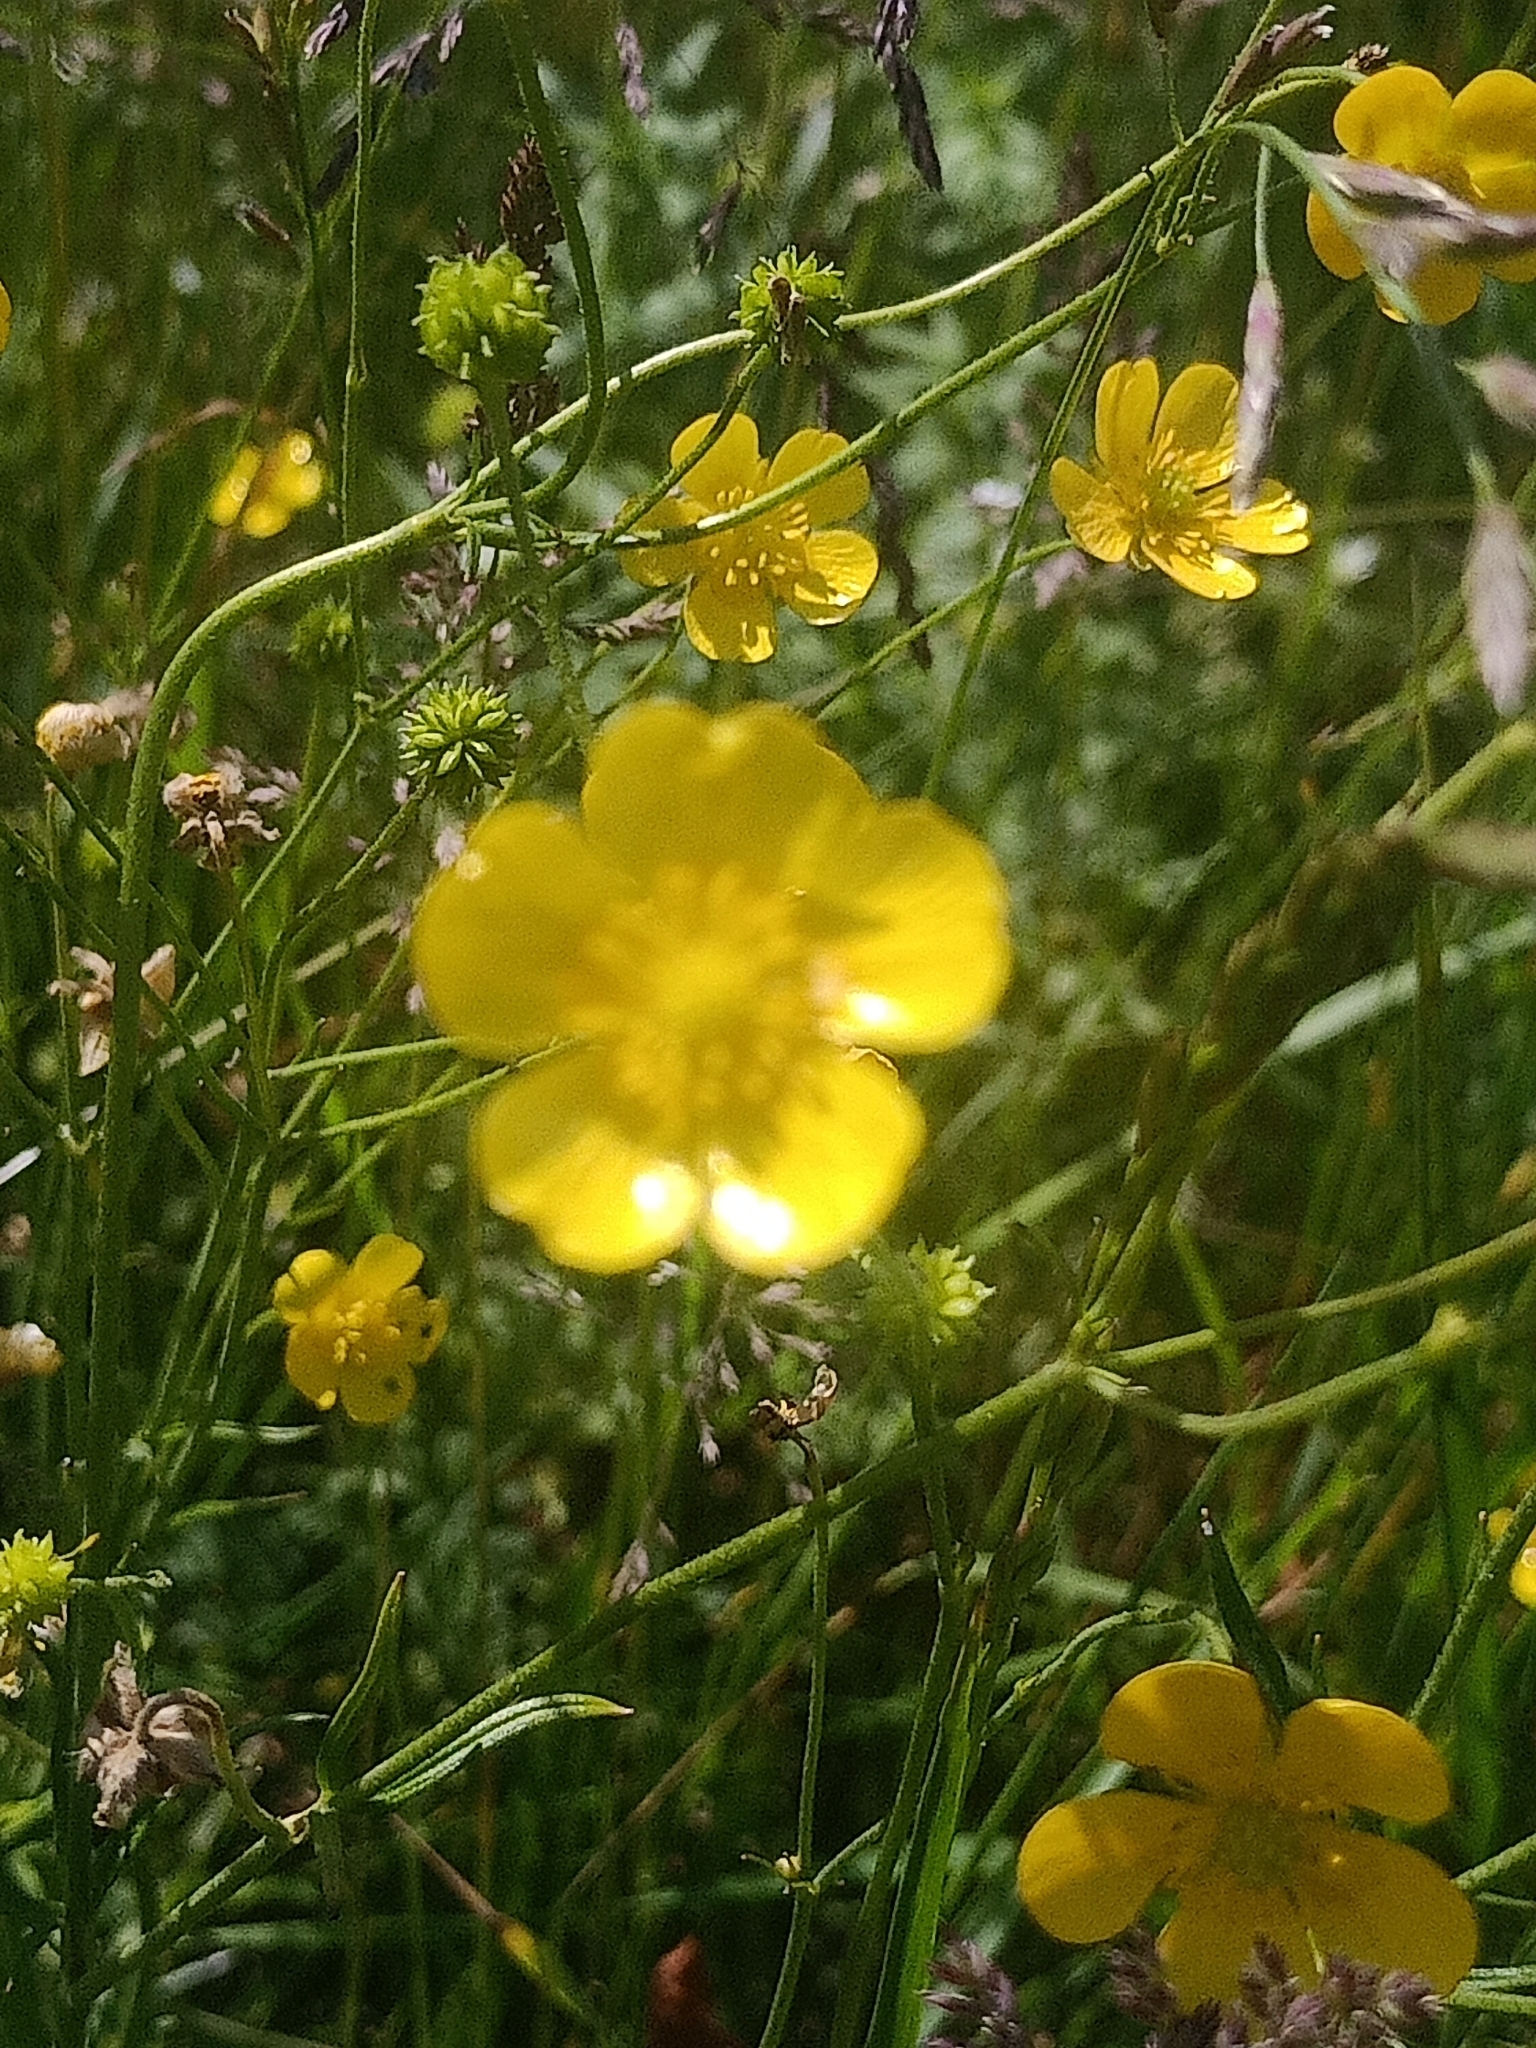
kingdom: Plantae
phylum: Tracheophyta
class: Magnoliopsida
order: Ranunculales
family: Ranunculaceae
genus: Ranunculus
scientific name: Ranunculus acris
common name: Meadow buttercup
